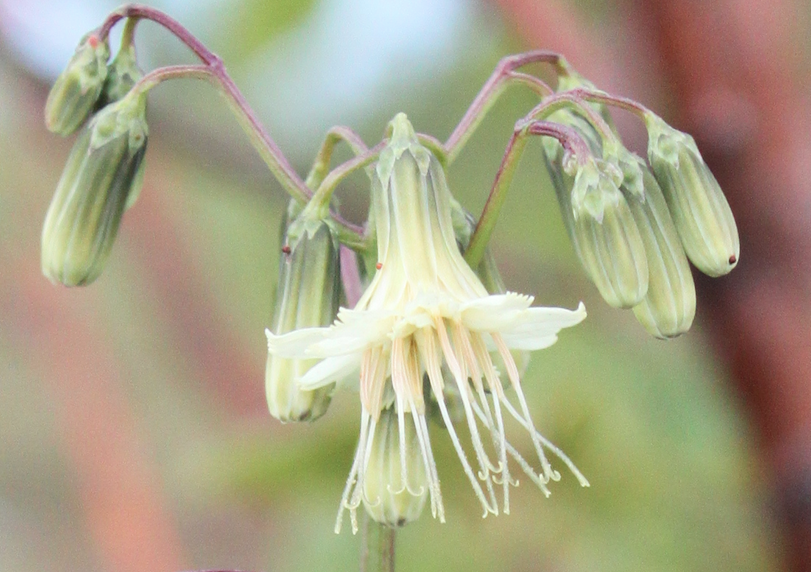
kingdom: Plantae
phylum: Tracheophyta
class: Magnoliopsida
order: Asterales
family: Asteraceae
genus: Nabalus
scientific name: Nabalus trifoliolatus
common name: Gall-of-the-earth
